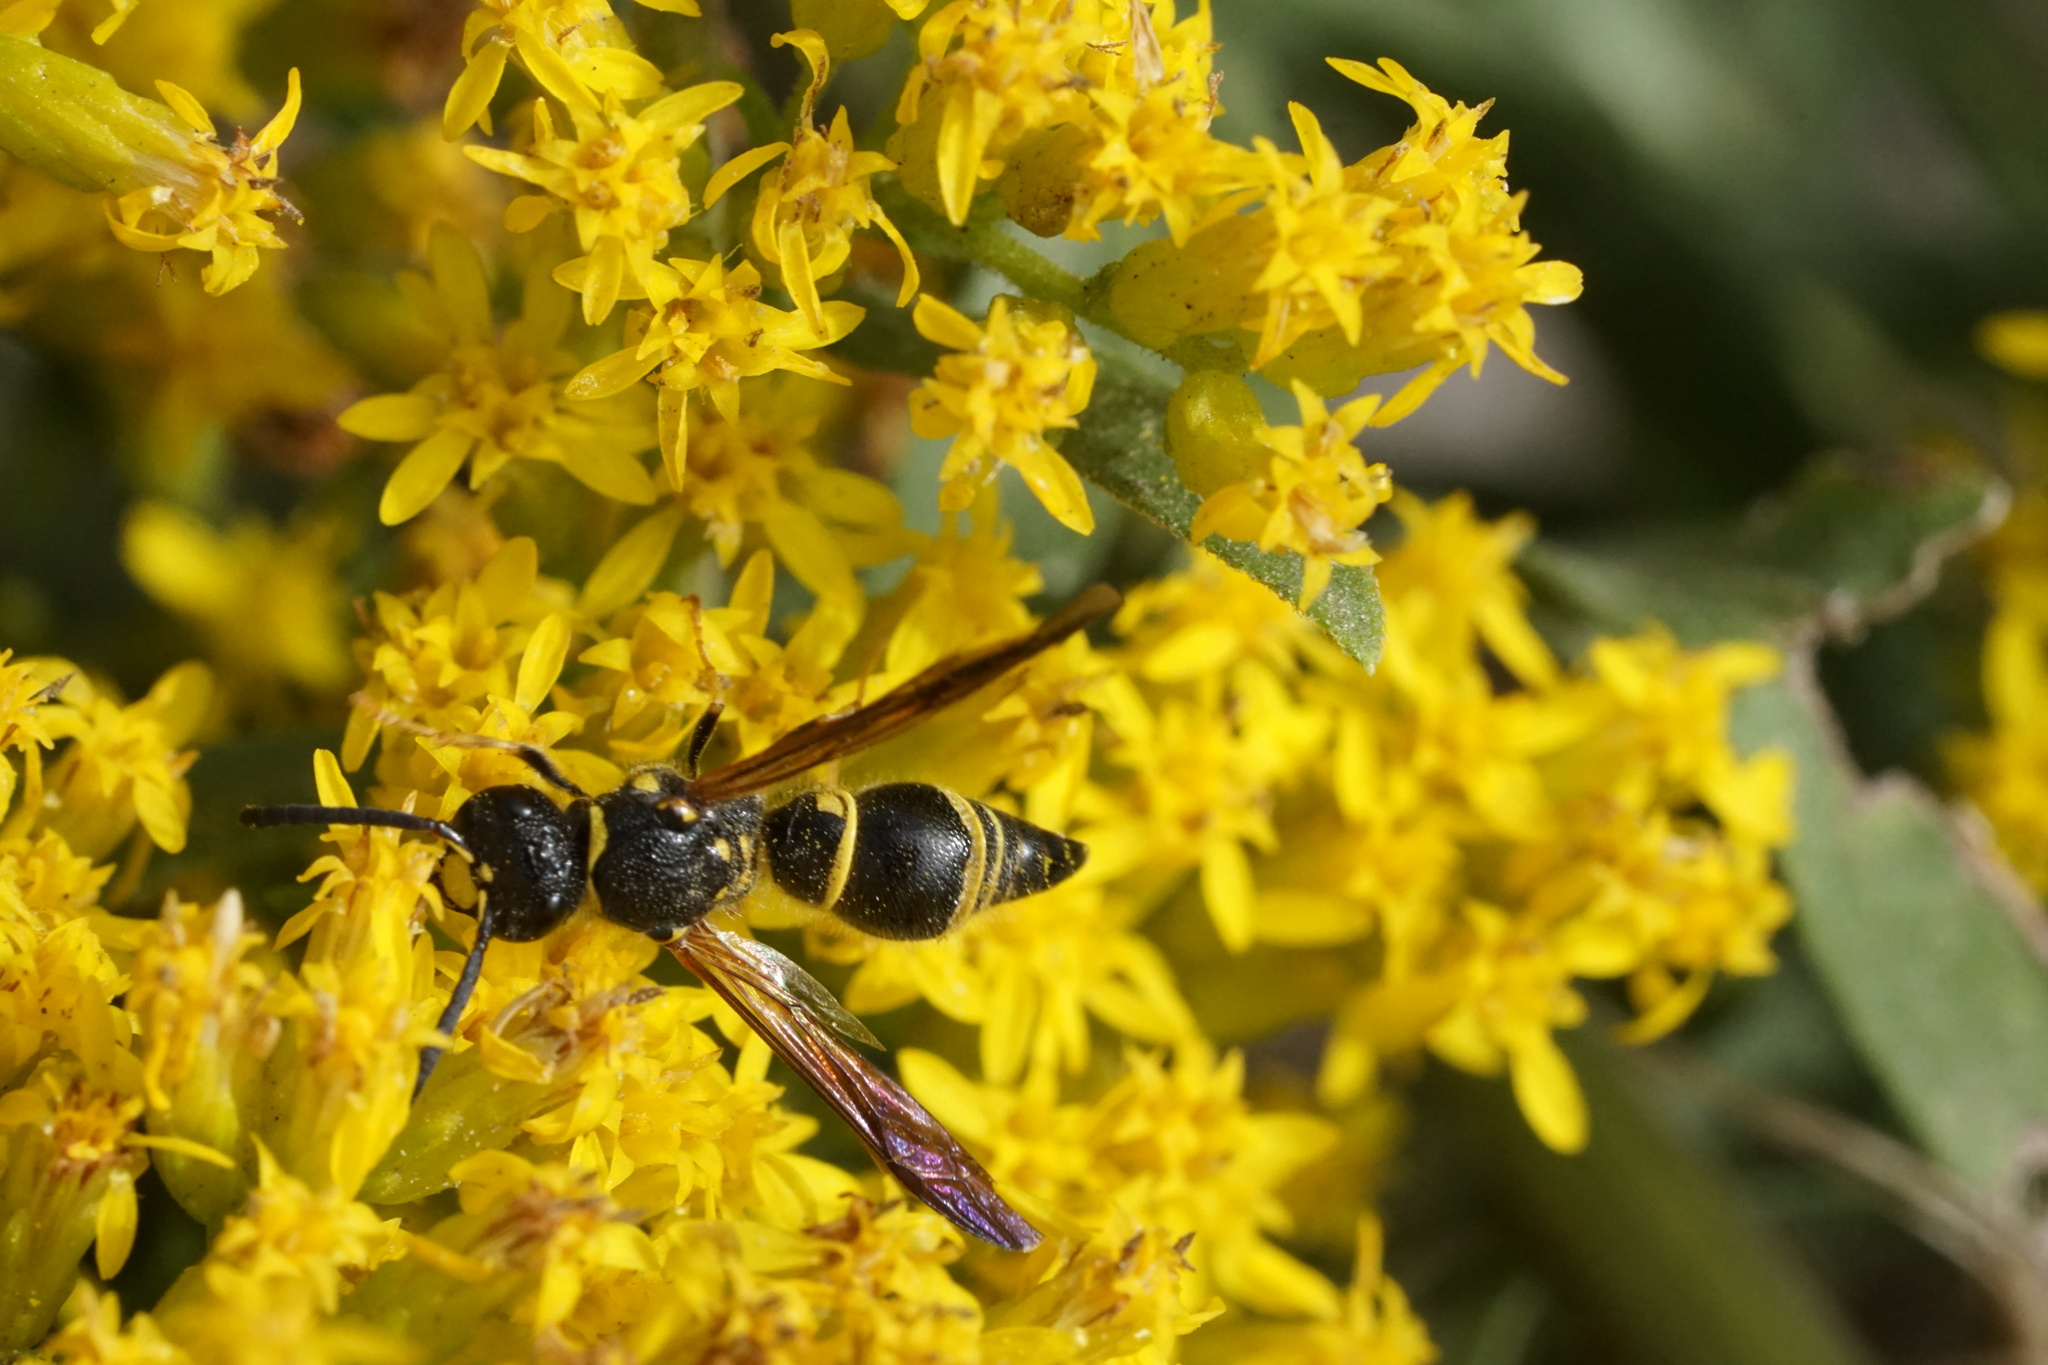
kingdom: Animalia
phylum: Arthropoda
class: Insecta
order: Hymenoptera
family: Vespidae
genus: Ancistrocerus
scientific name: Ancistrocerus campestris
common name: Smiling mason wasp
